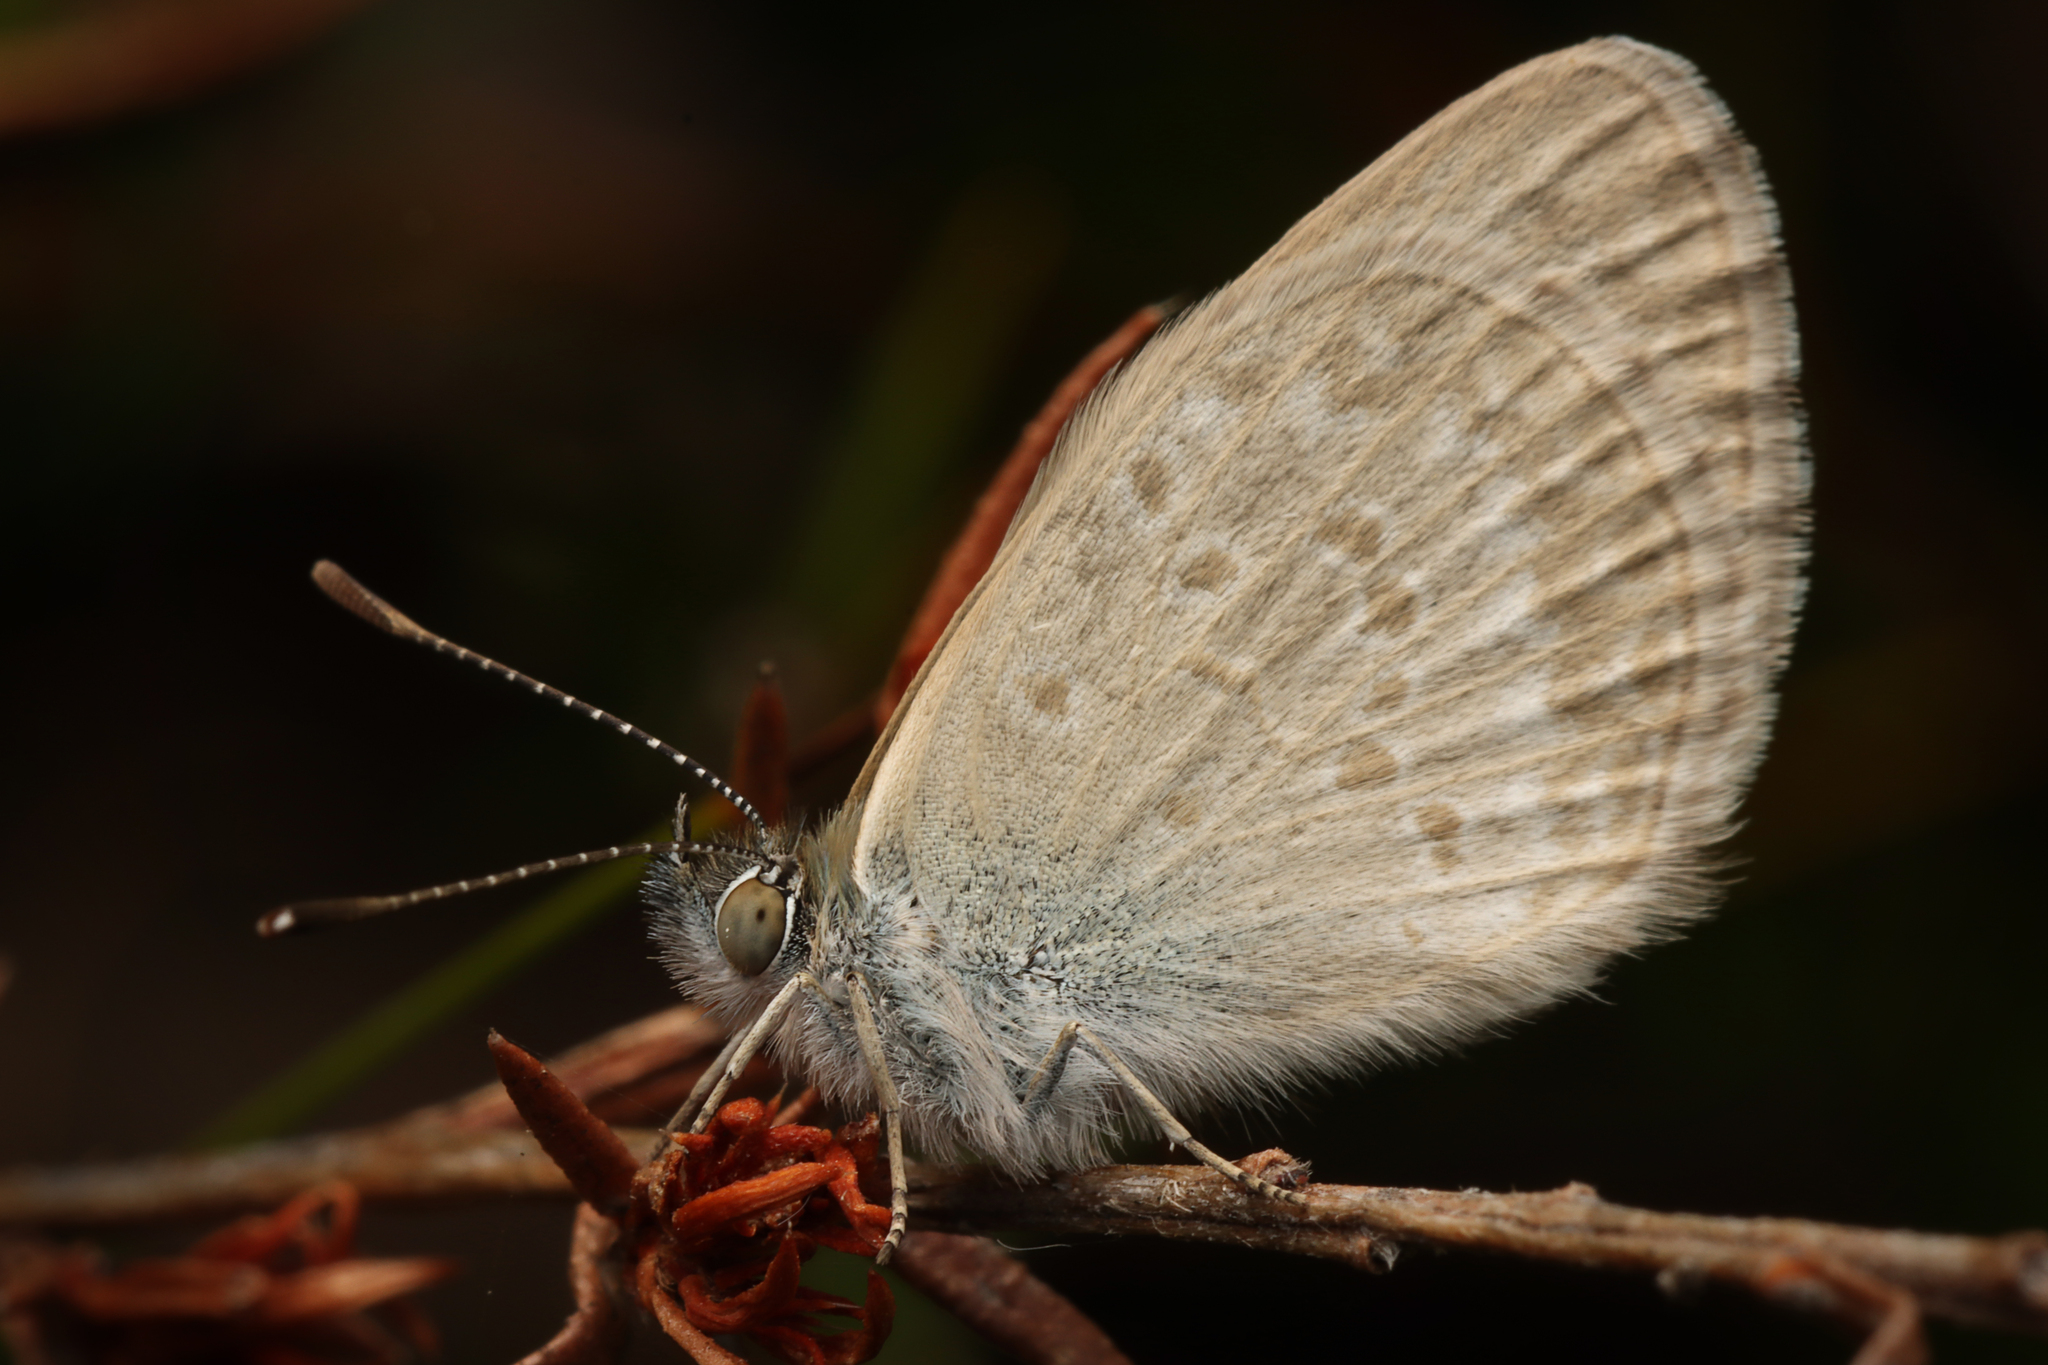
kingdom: Animalia
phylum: Arthropoda
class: Insecta
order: Lepidoptera
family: Lycaenidae
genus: Zizina
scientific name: Zizina otis
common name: Lesser grass blue
